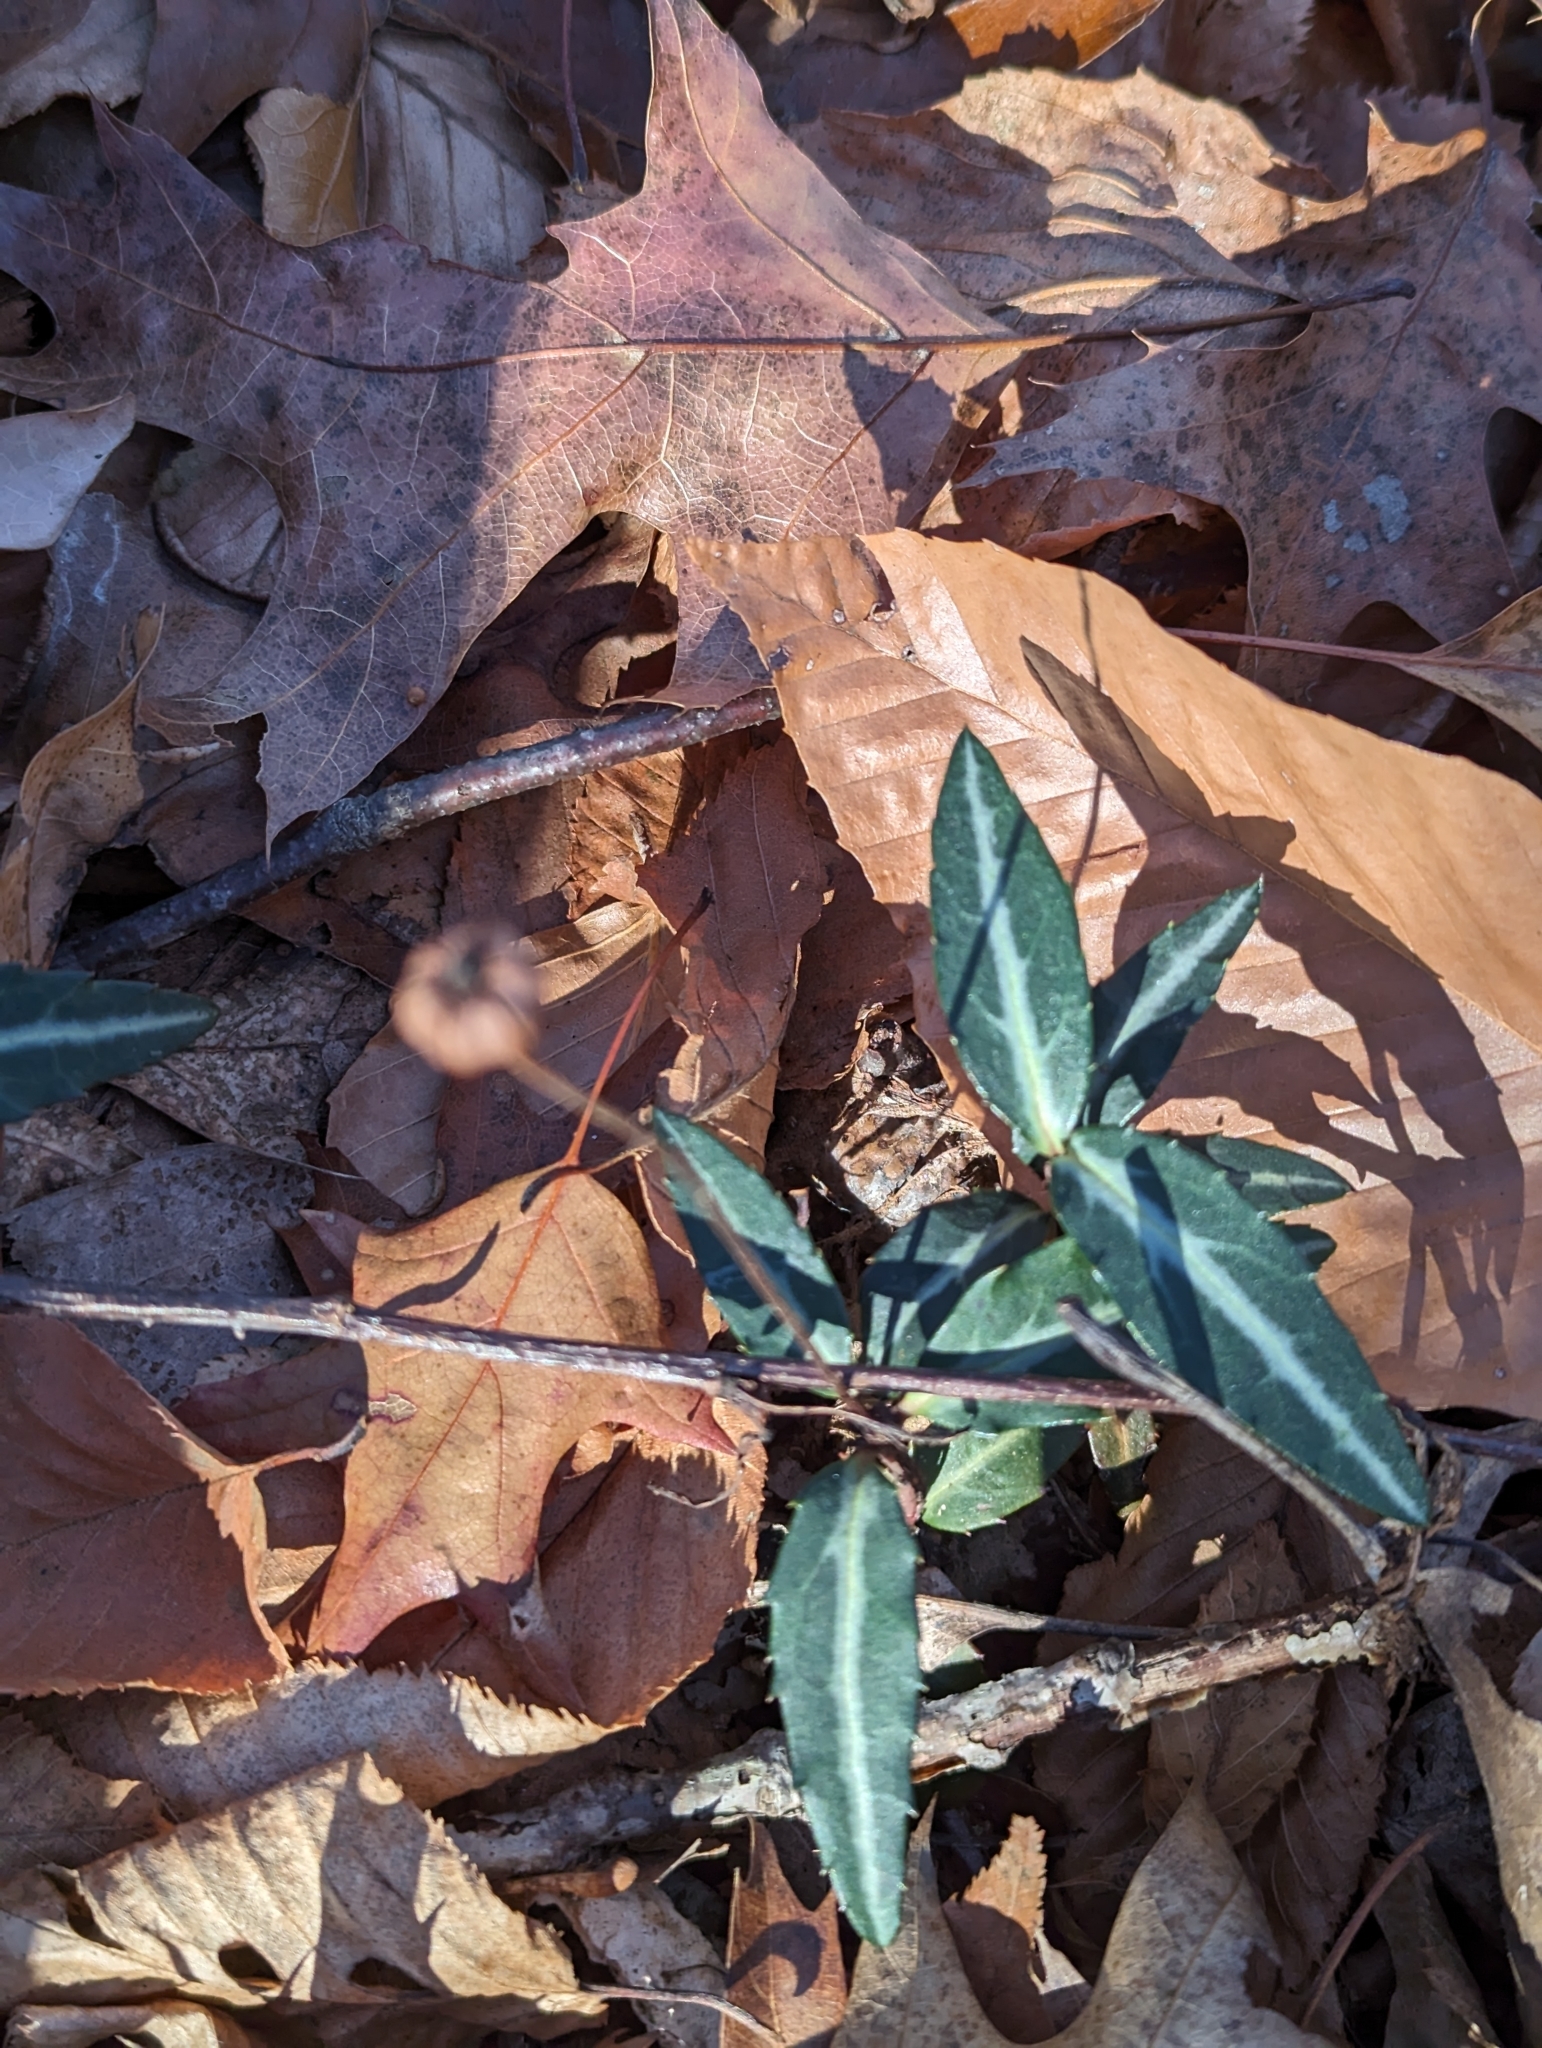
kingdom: Plantae
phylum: Tracheophyta
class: Magnoliopsida
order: Ericales
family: Ericaceae
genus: Chimaphila
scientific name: Chimaphila maculata
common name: Spotted pipsissewa
